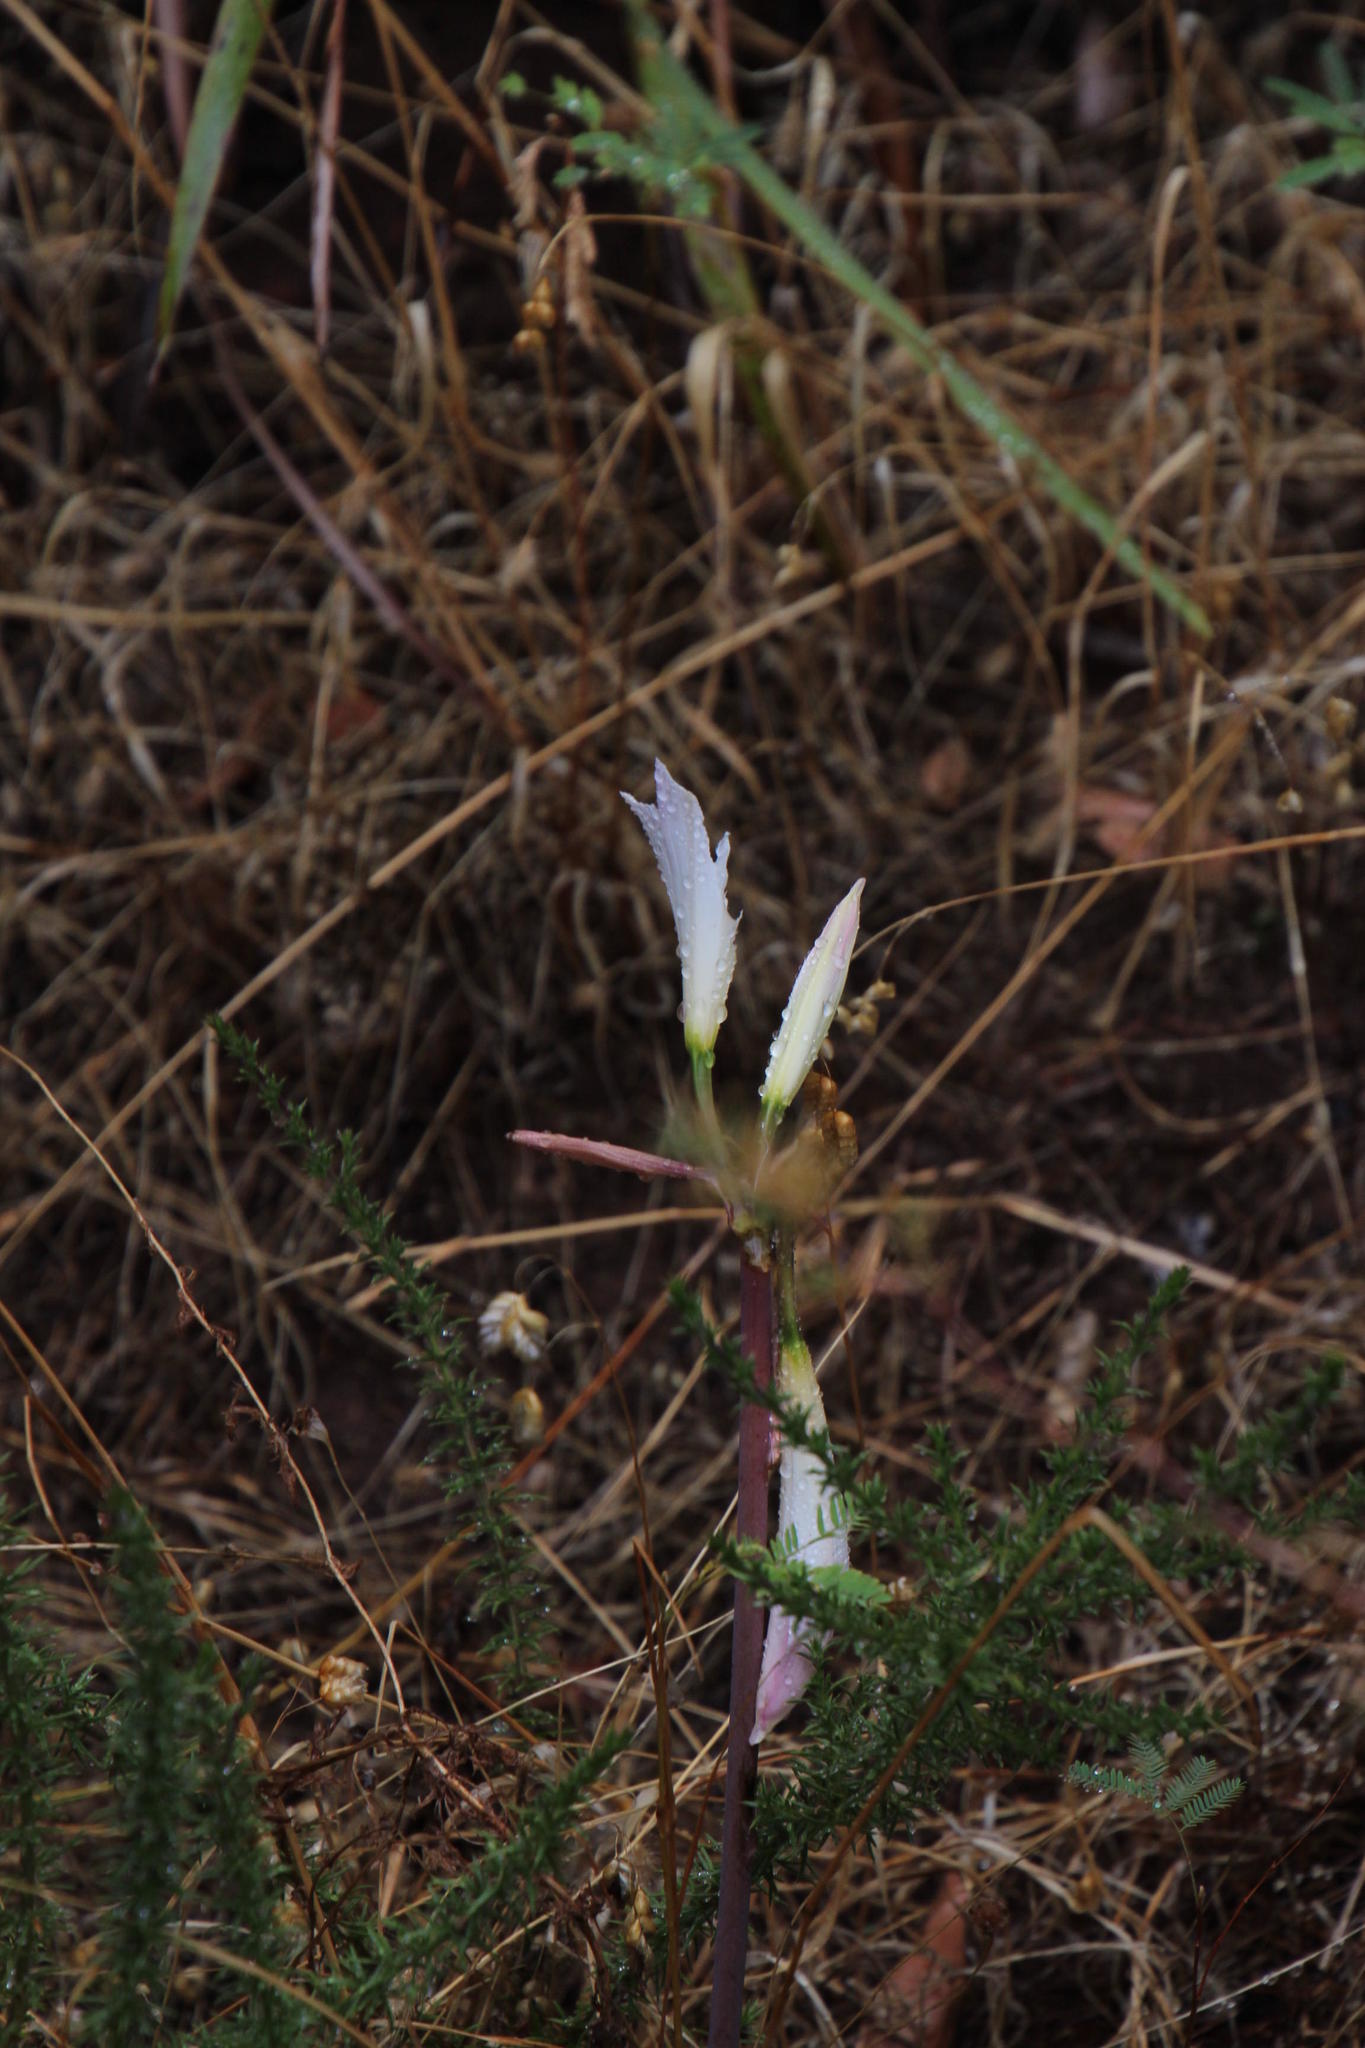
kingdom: Plantae
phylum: Tracheophyta
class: Liliopsida
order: Asparagales
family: Amaryllidaceae
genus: Amaryllis
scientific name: Amaryllis belladonna
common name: Jersey lily
